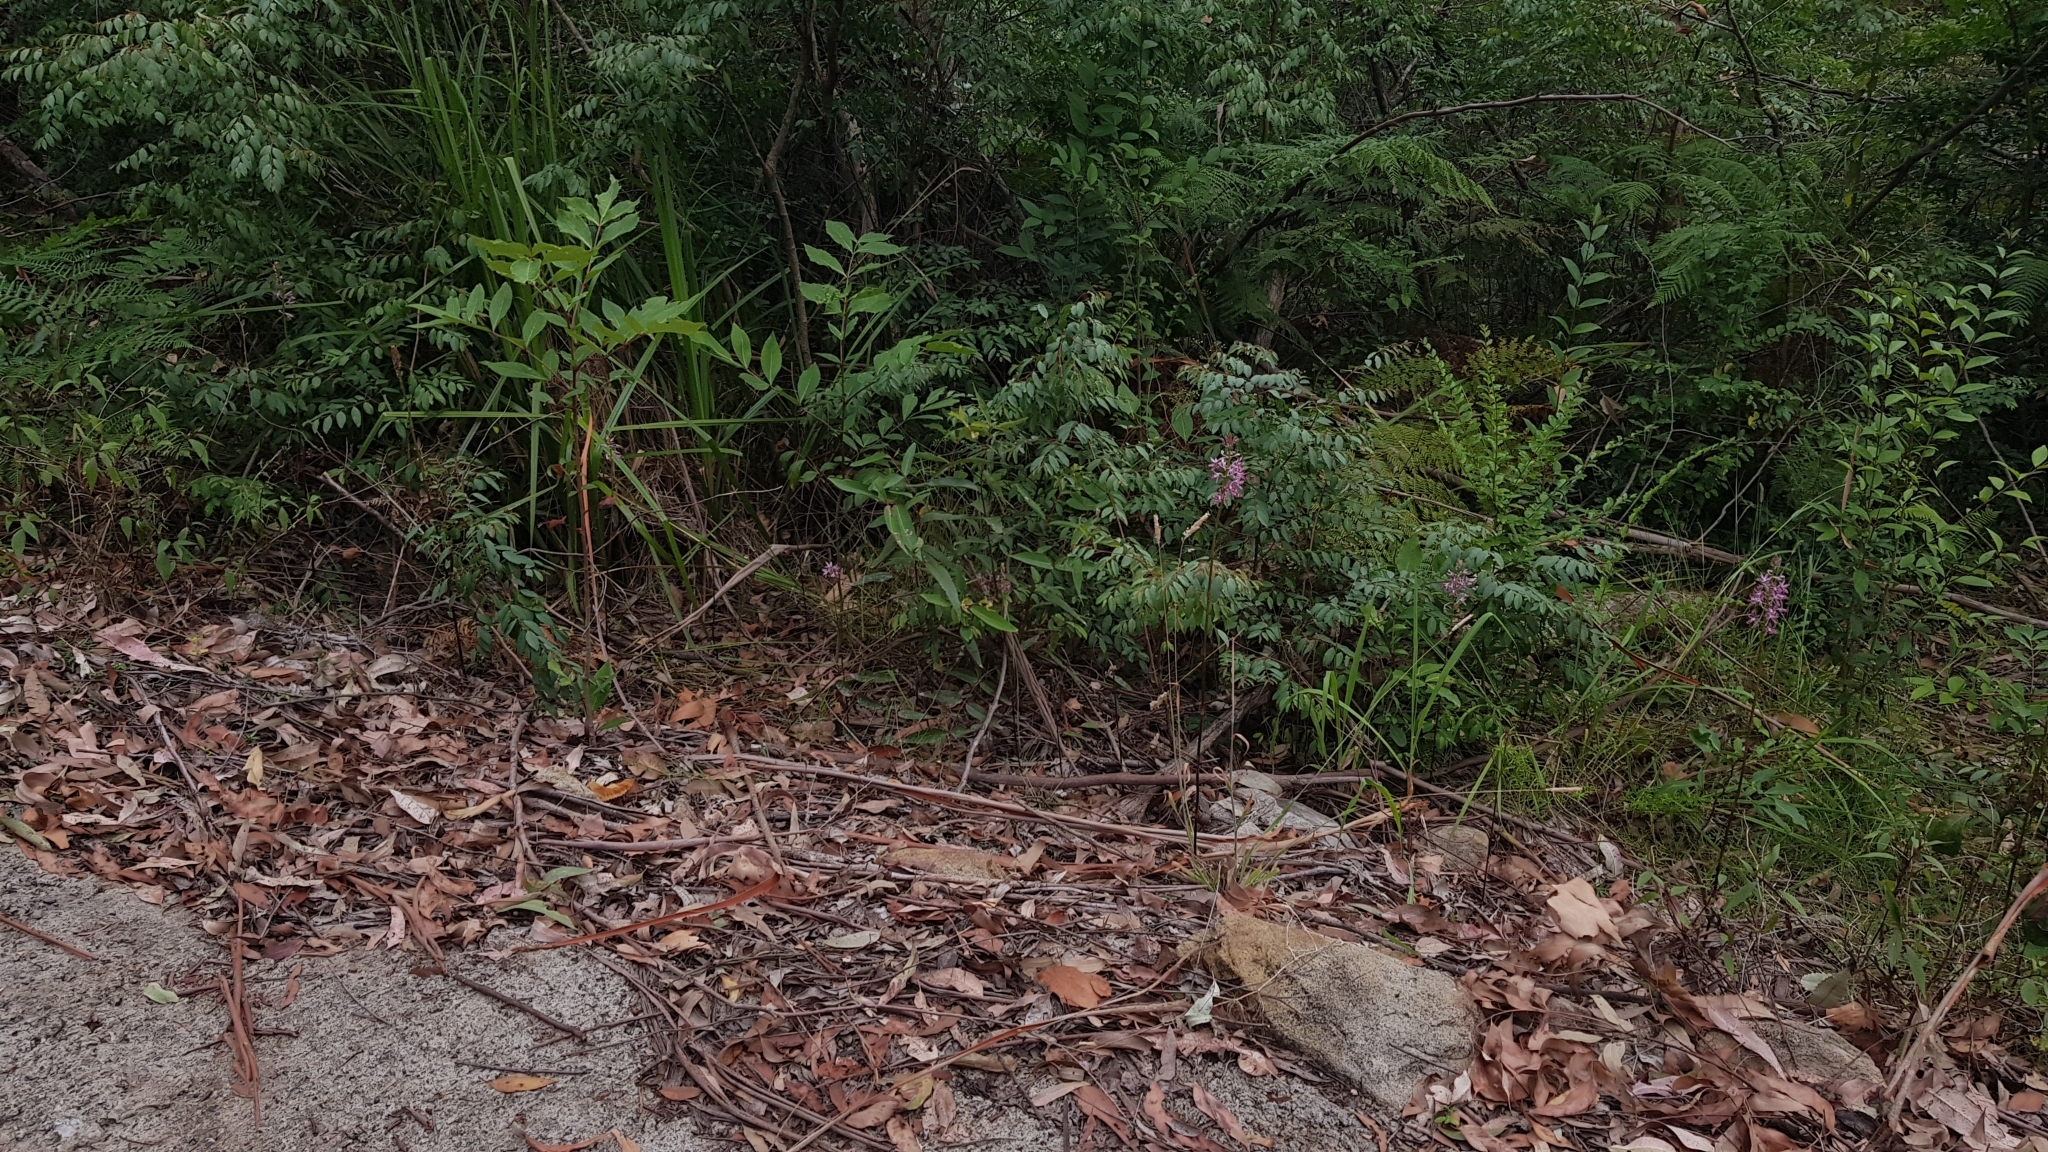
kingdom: Plantae
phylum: Tracheophyta
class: Liliopsida
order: Asparagales
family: Orchidaceae
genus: Dipodium
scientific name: Dipodium variegatum
